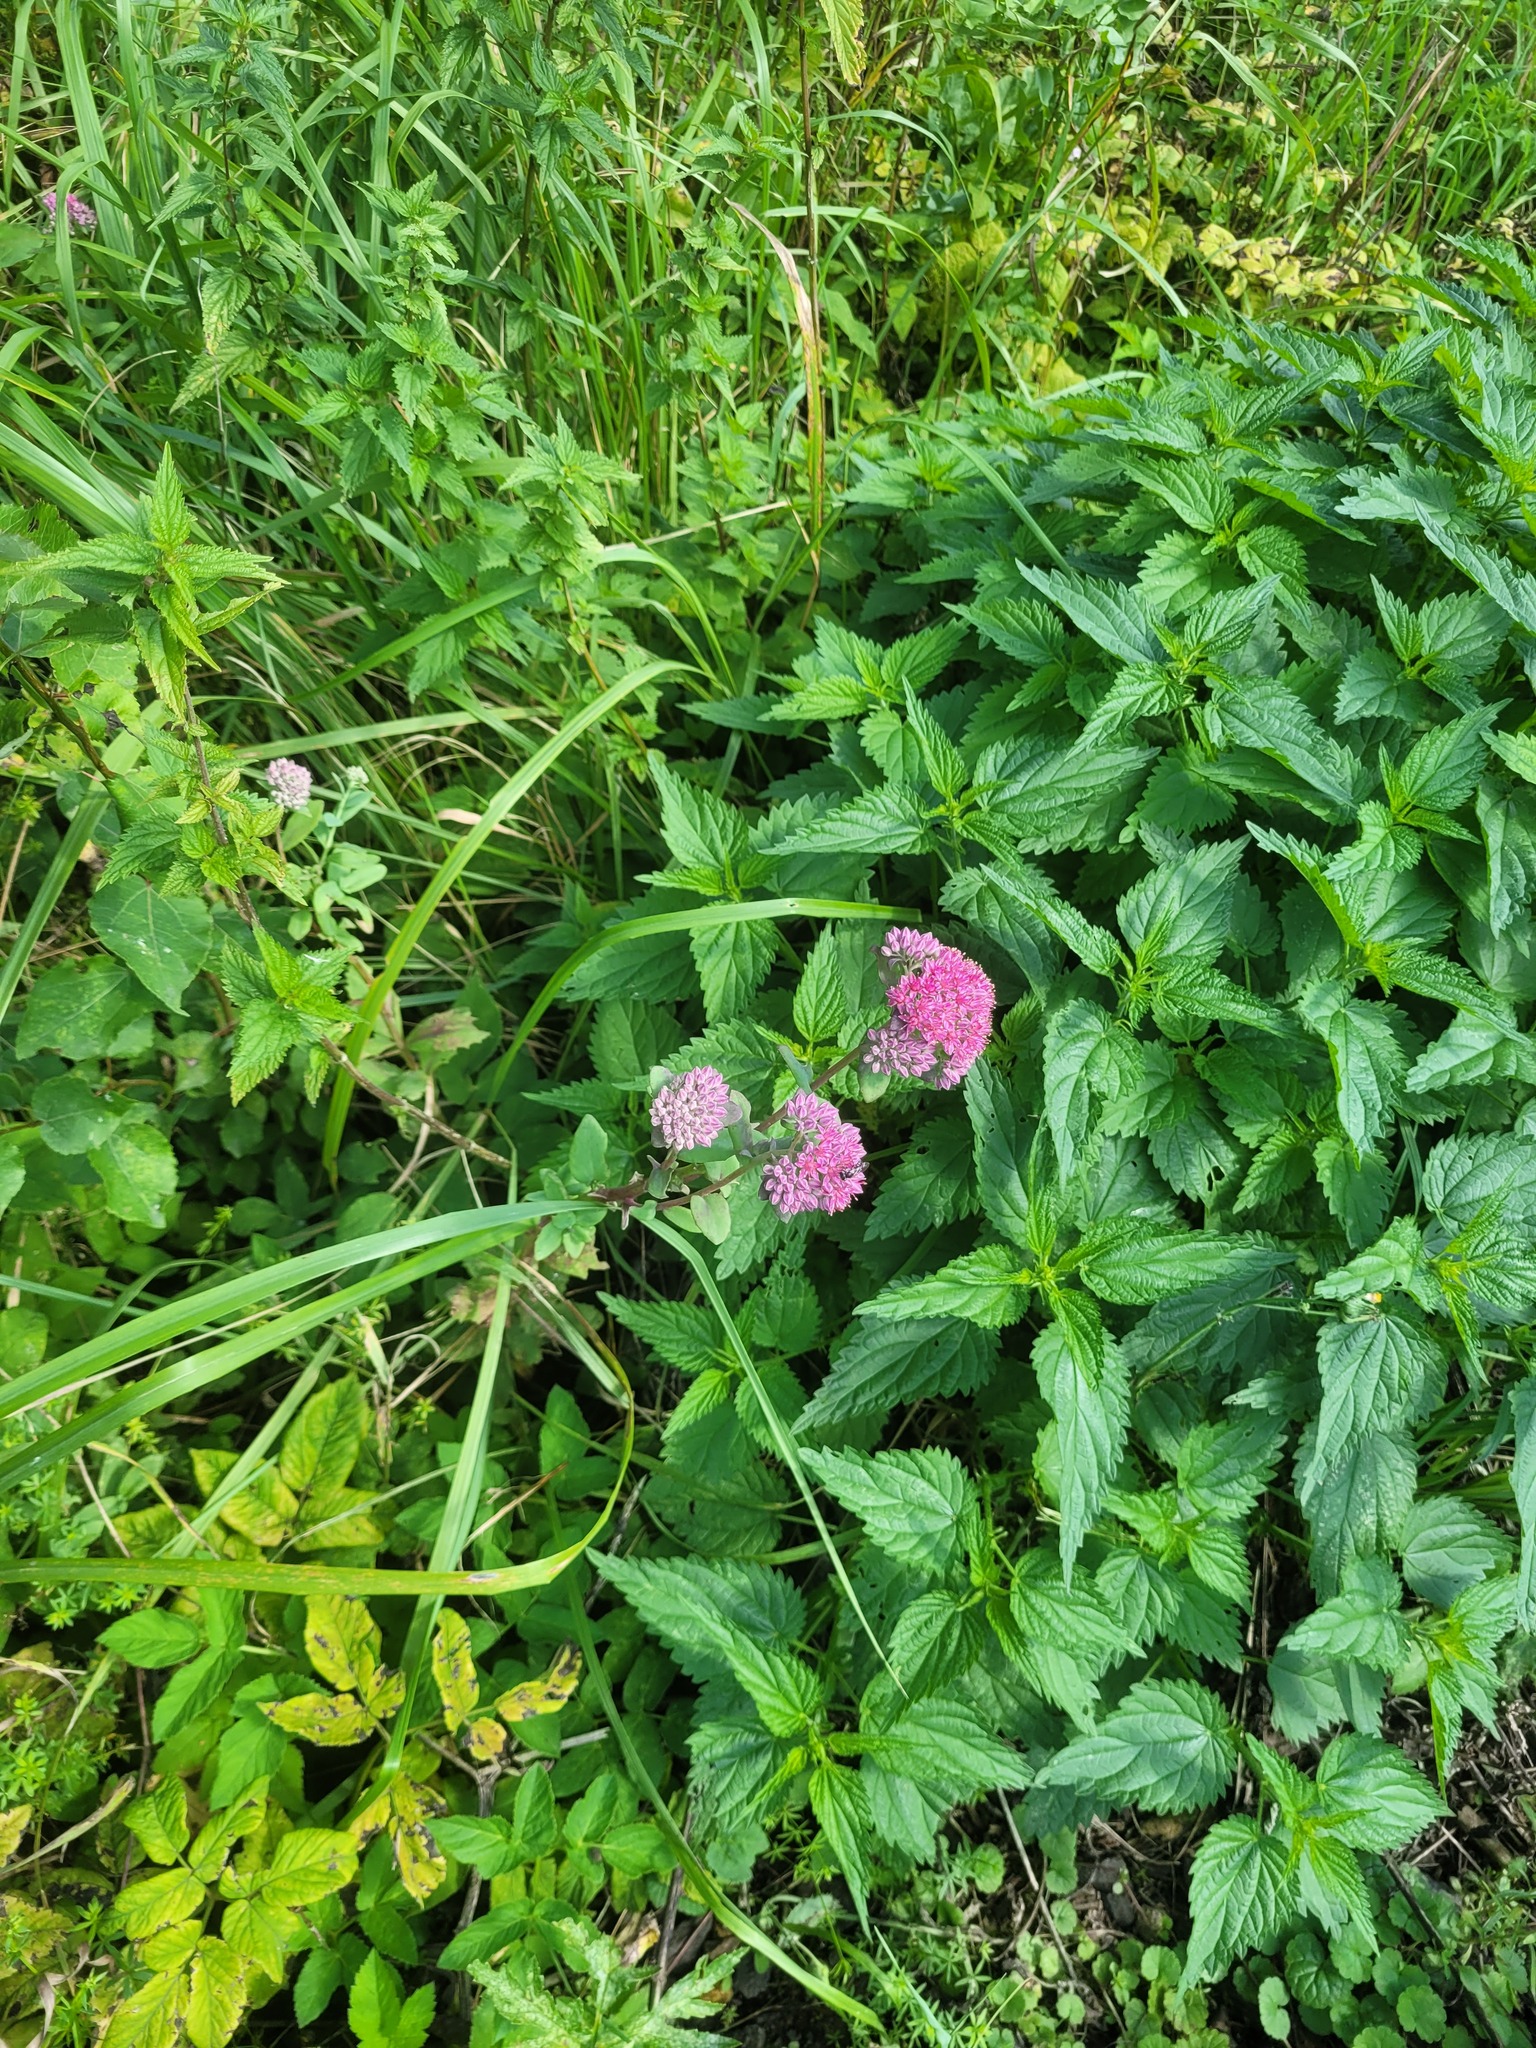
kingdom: Plantae
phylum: Tracheophyta
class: Magnoliopsida
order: Saxifragales
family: Crassulaceae
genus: Hylotelephium
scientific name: Hylotelephium telephium
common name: Live-forever
